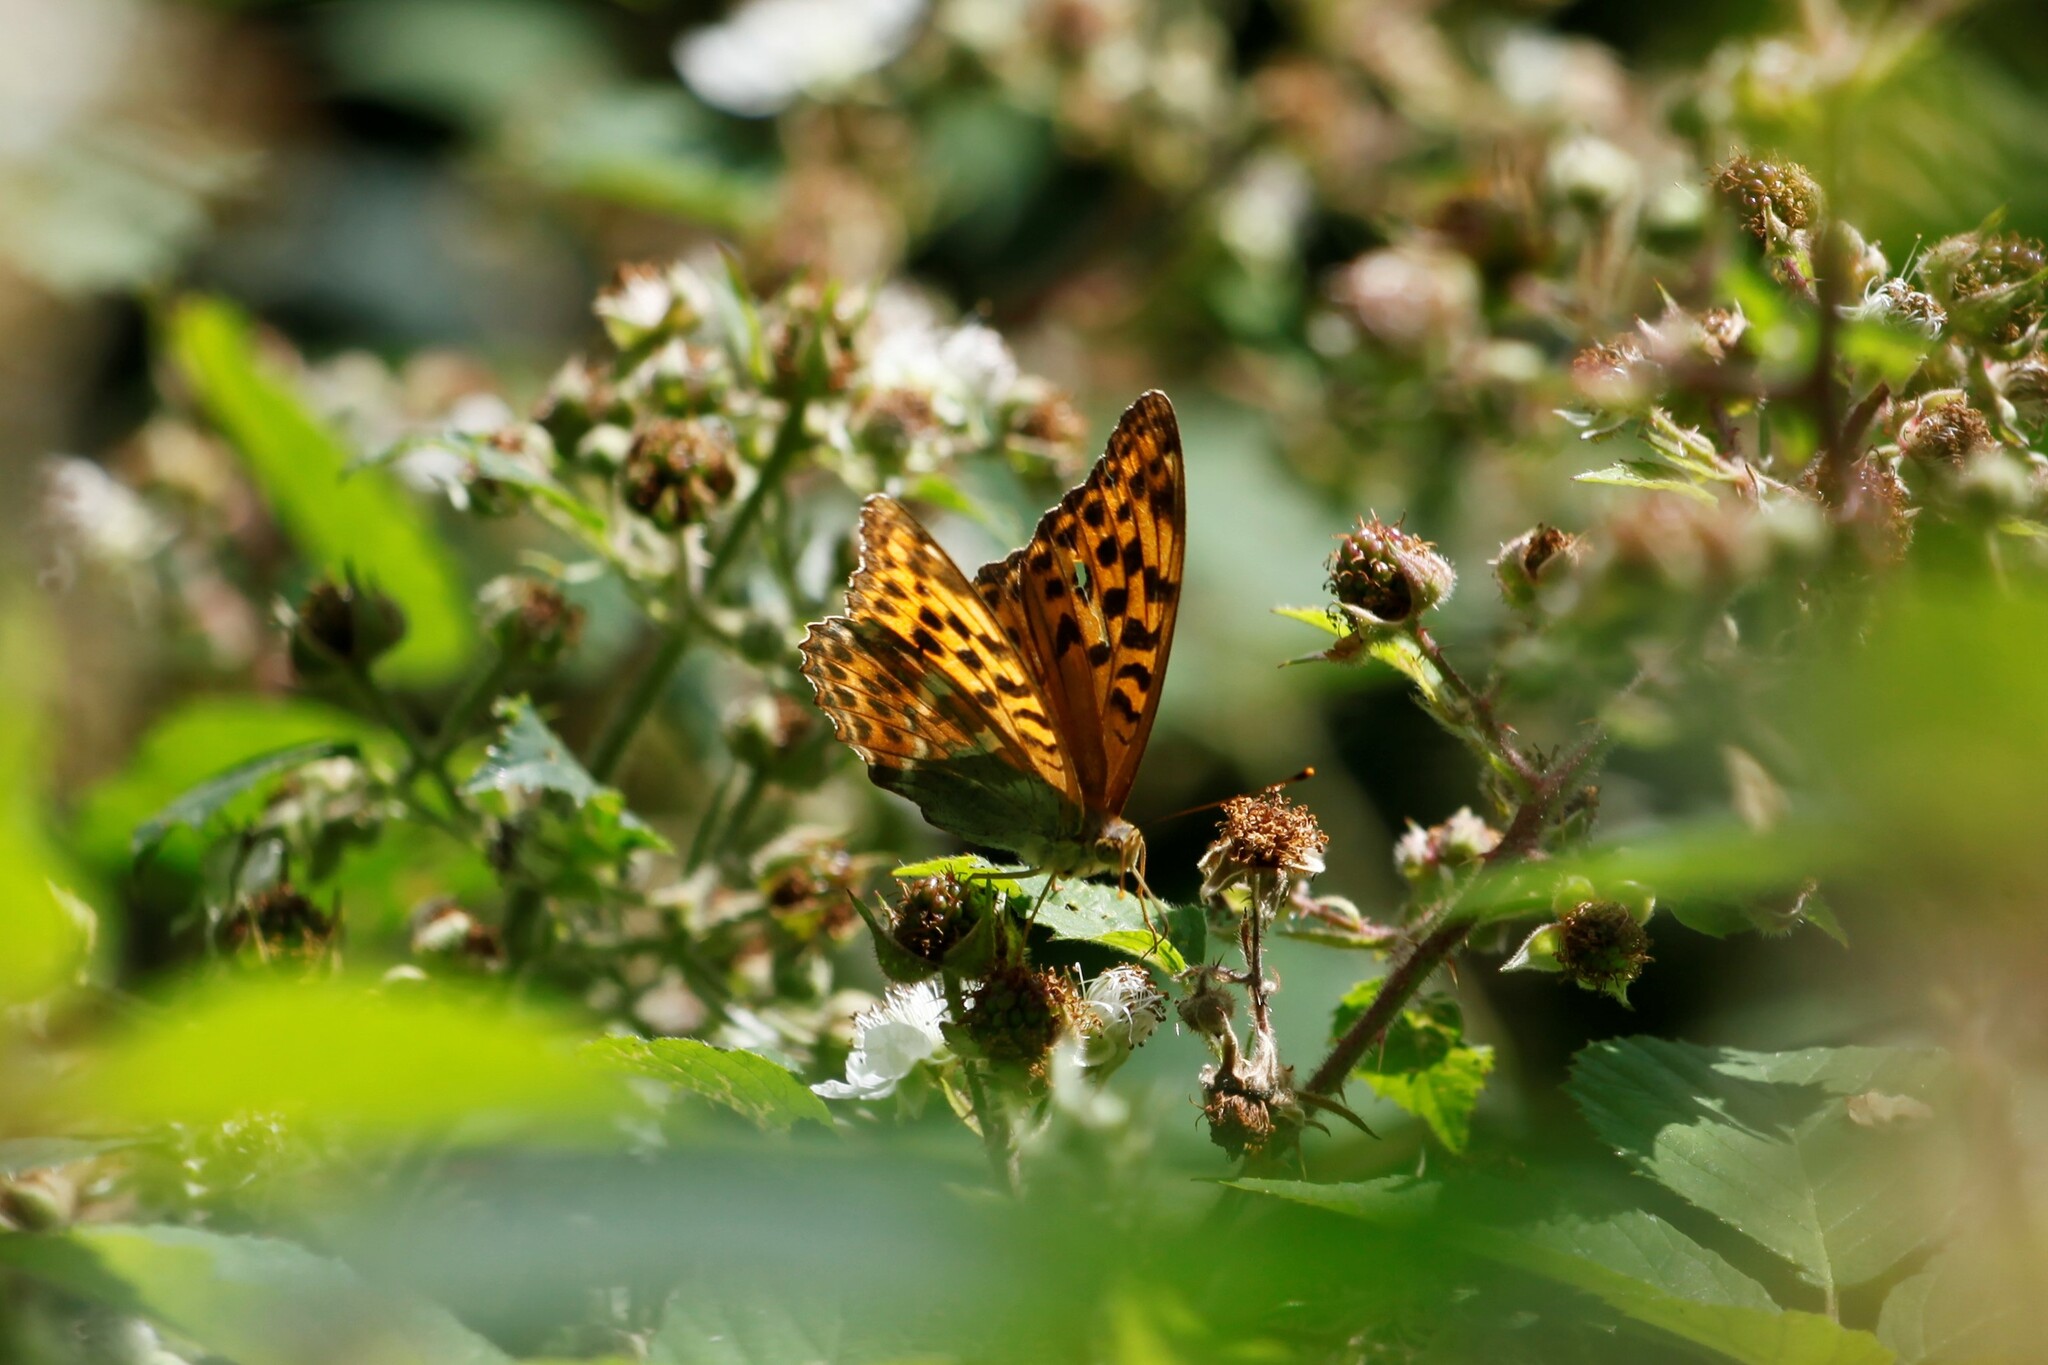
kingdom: Animalia
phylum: Arthropoda
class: Insecta
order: Lepidoptera
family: Nymphalidae
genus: Argynnis
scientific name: Argynnis paphia
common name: Silver-washed fritillary
